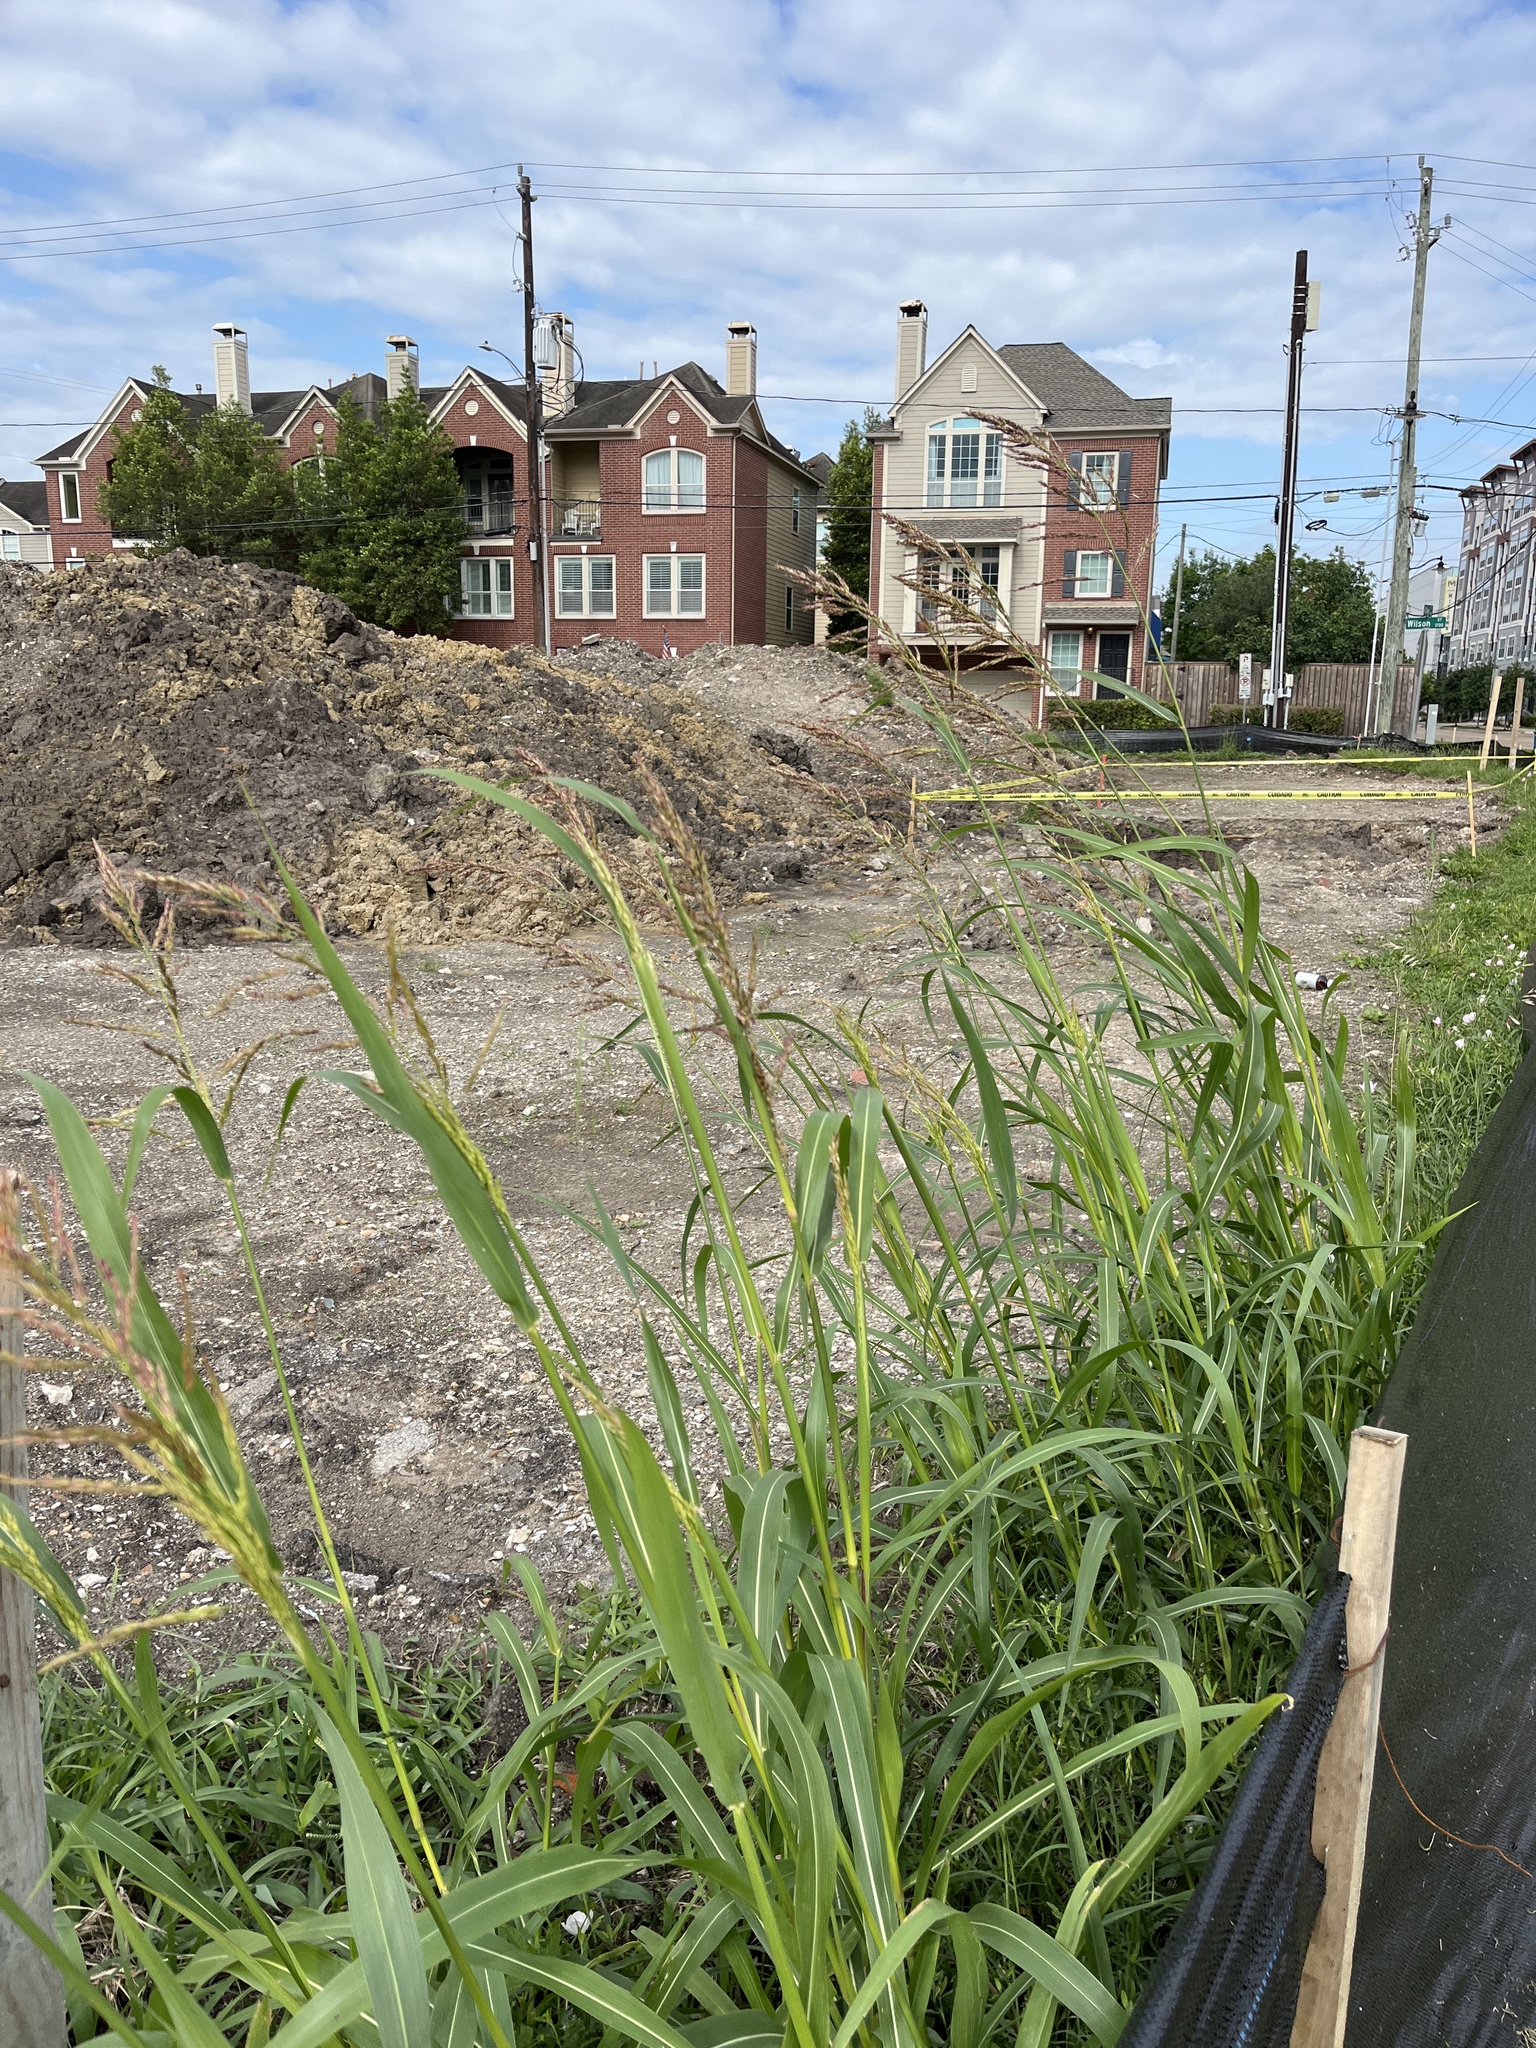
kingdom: Plantae
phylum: Tracheophyta
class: Liliopsida
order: Poales
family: Poaceae
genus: Sorghum
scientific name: Sorghum halepense
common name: Johnson-grass
